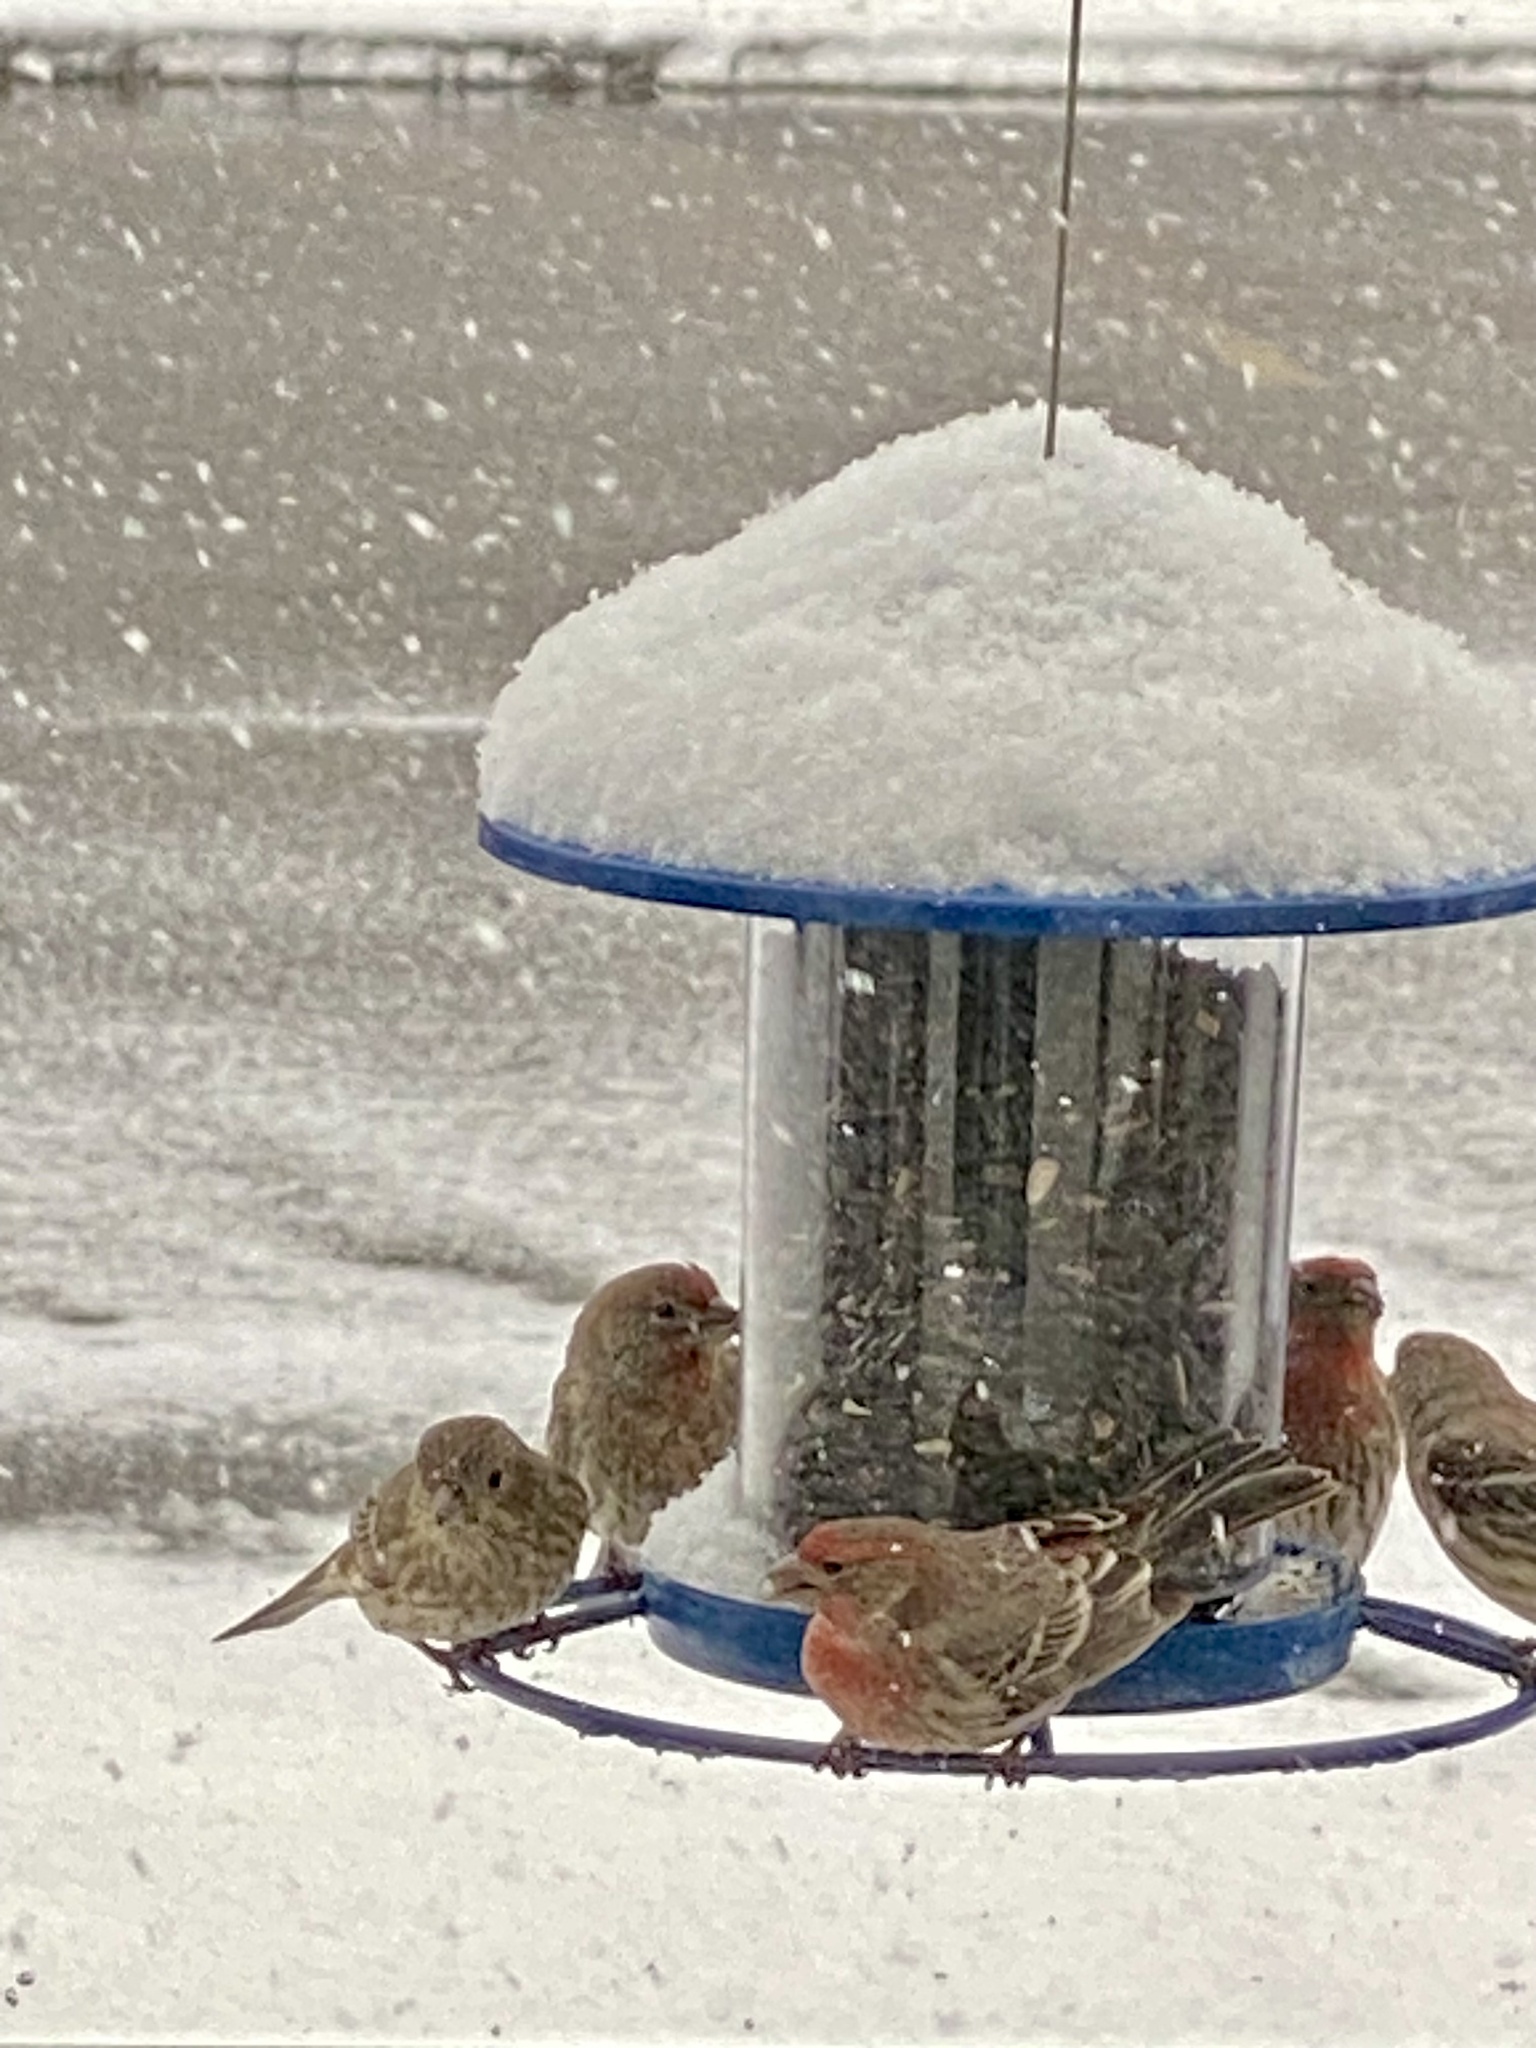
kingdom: Animalia
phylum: Chordata
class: Aves
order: Passeriformes
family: Fringillidae
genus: Haemorhous
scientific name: Haemorhous mexicanus
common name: House finch
